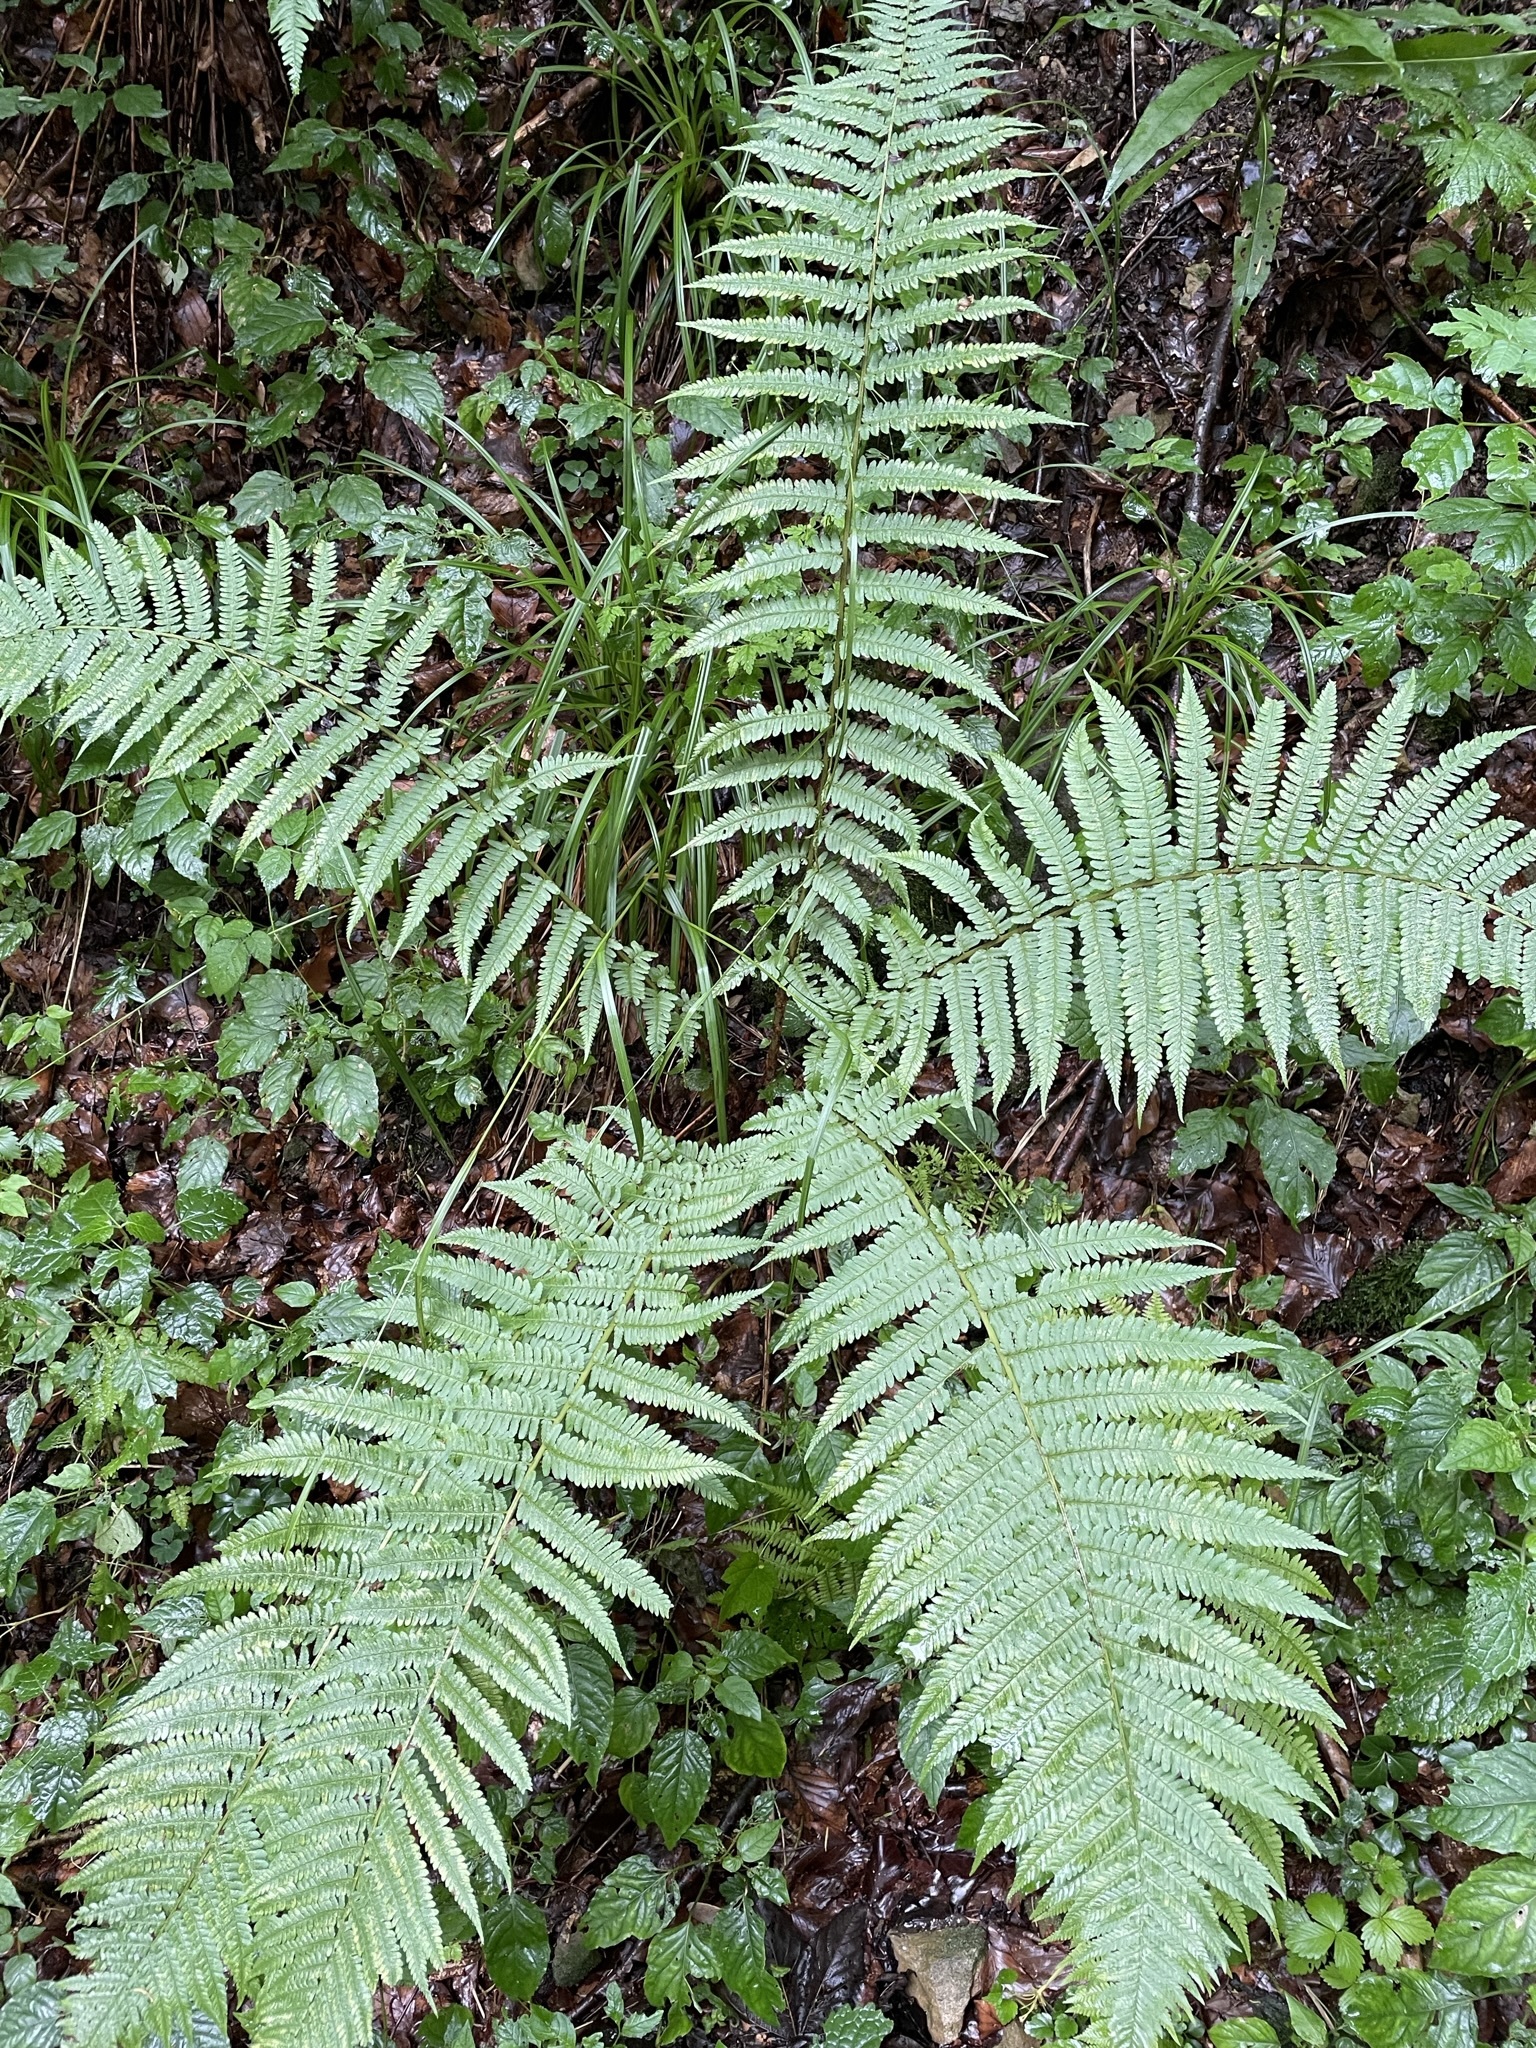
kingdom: Plantae
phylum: Tracheophyta
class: Polypodiopsida
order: Polypodiales
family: Dryopteridaceae
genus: Dryopteris
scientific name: Dryopteris filix-mas
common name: Male fern
